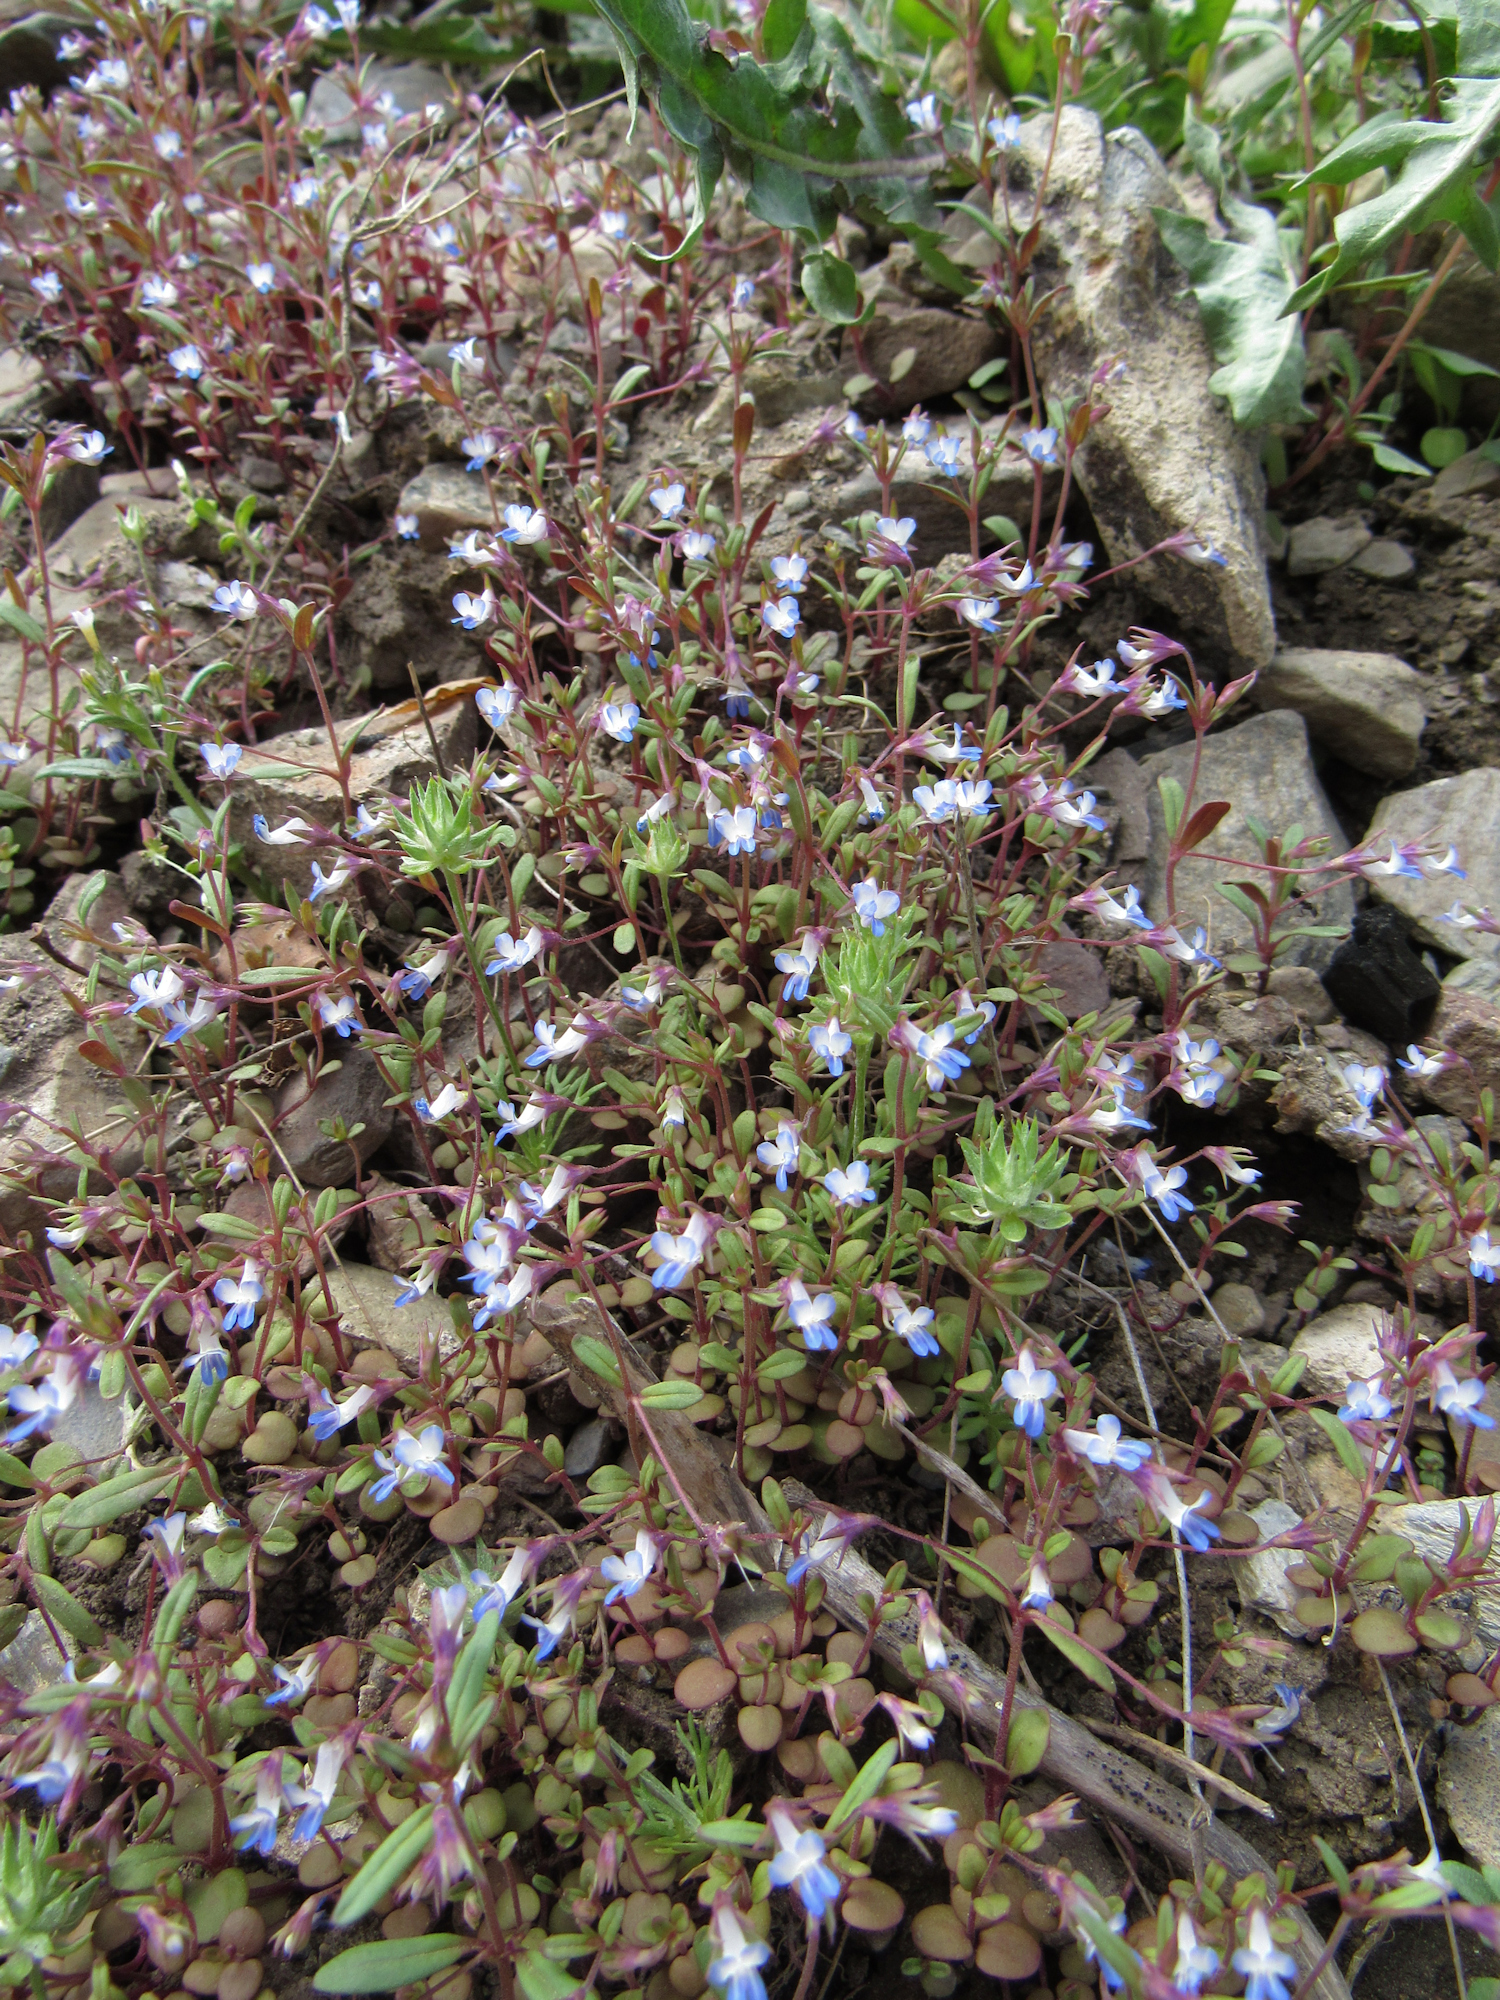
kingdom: Plantae
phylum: Tracheophyta
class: Magnoliopsida
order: Lamiales
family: Plantaginaceae
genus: Collinsia
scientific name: Collinsia parviflora
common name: Blue-lips
